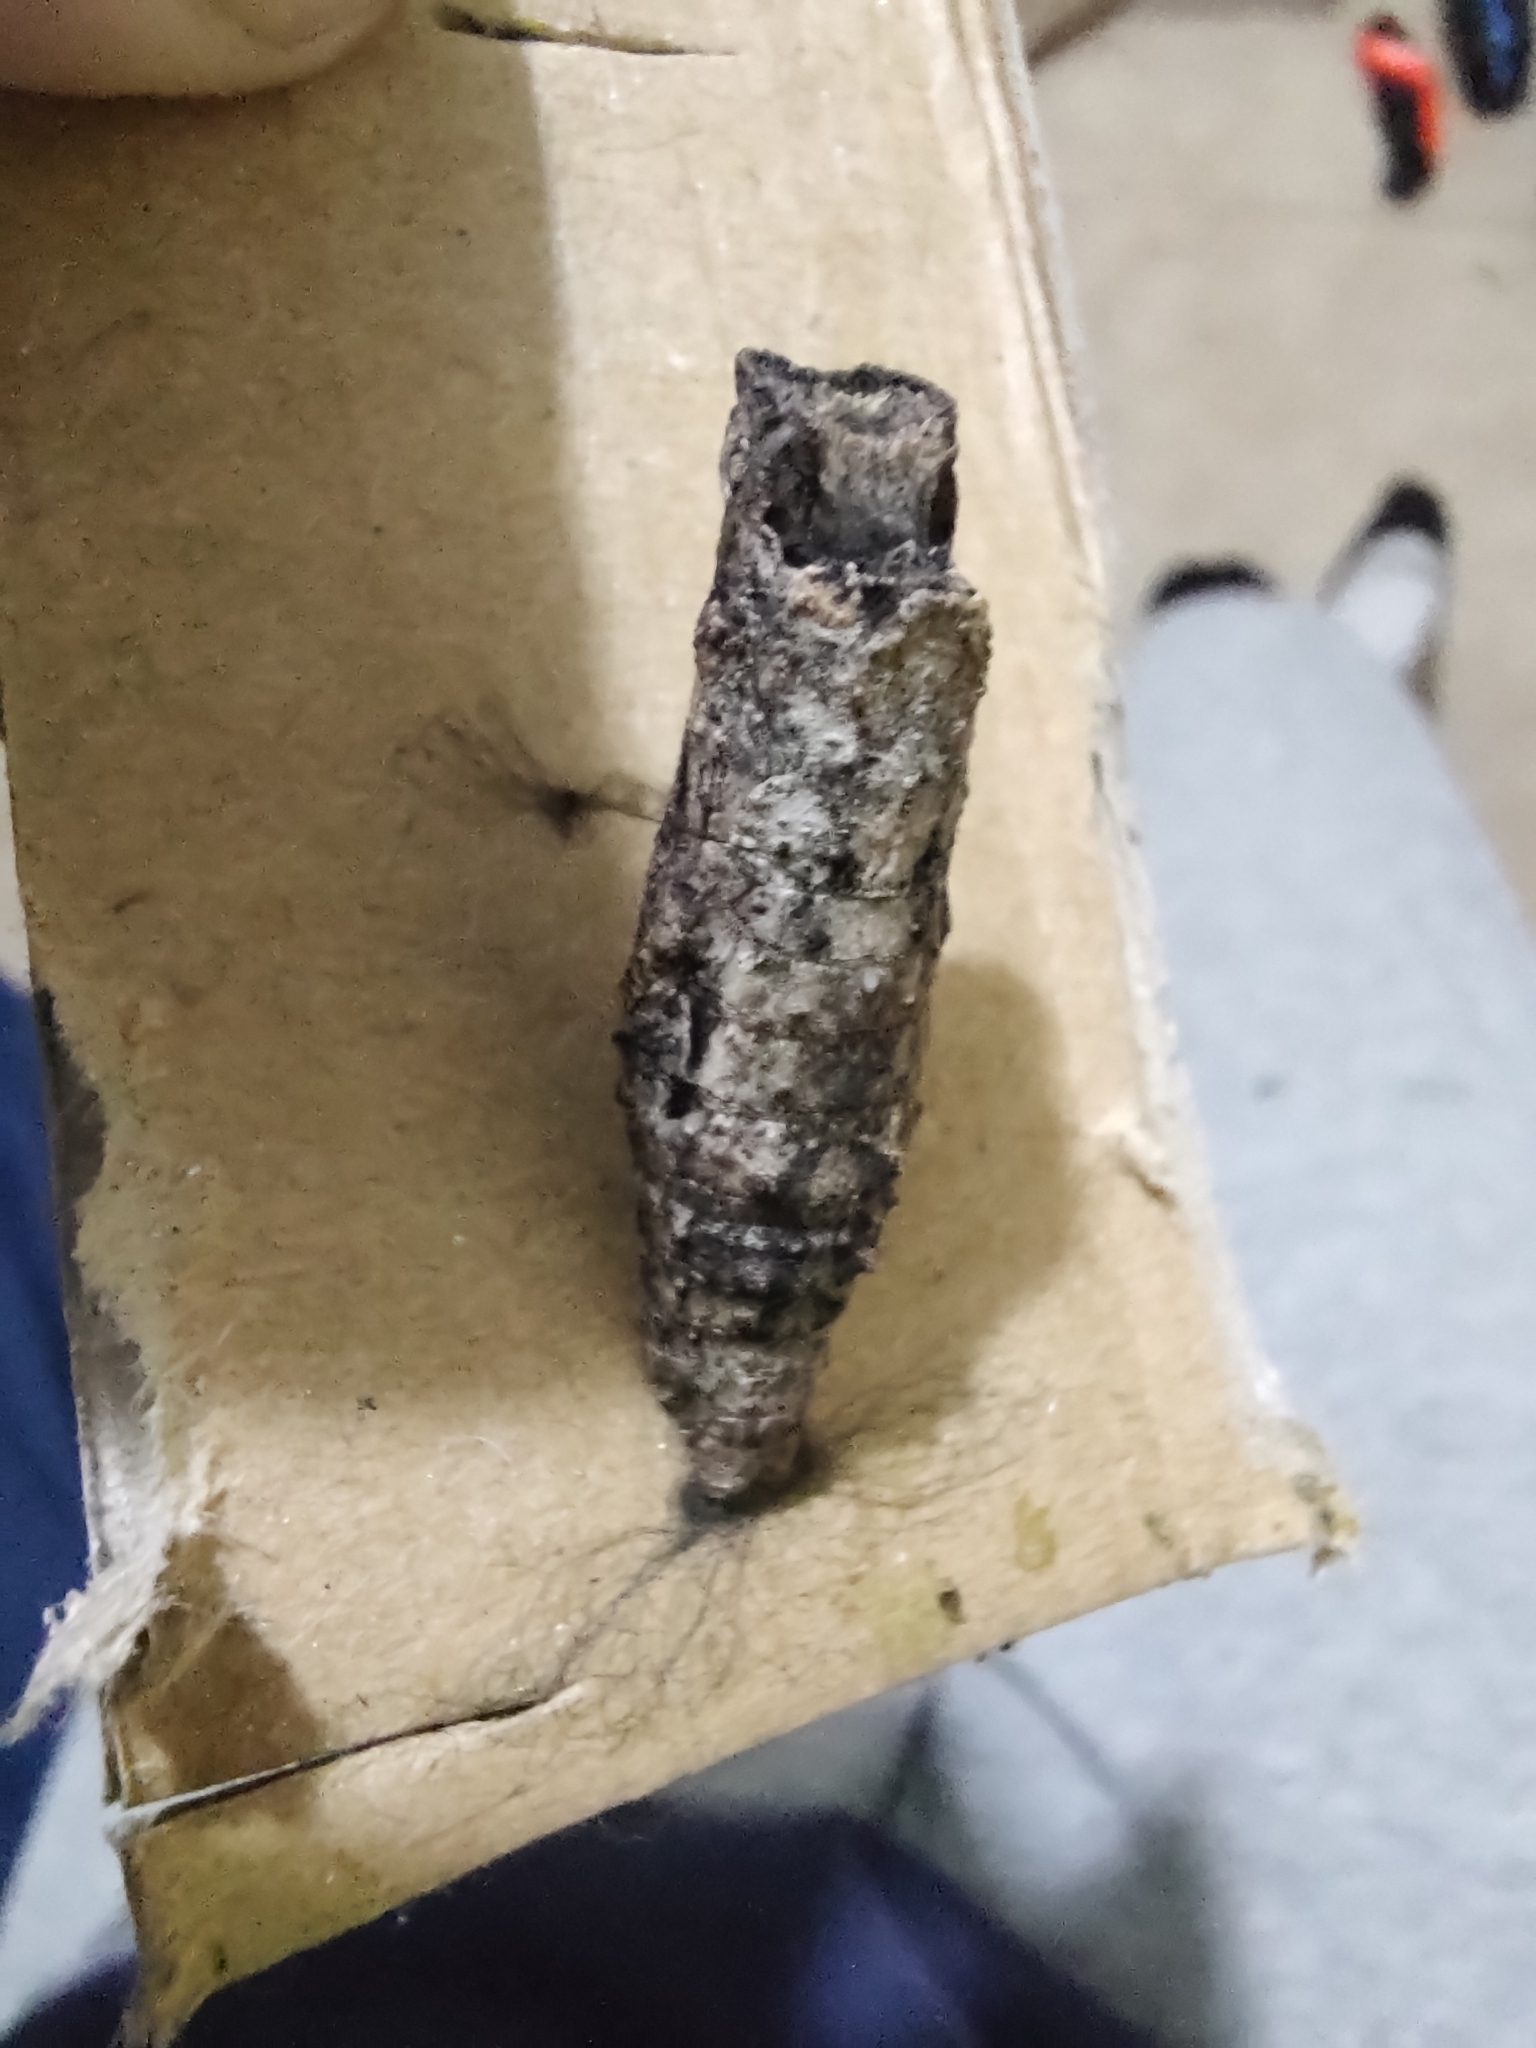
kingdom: Animalia
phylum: Arthropoda
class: Insecta
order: Lepidoptera
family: Papilionidae
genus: Papilio
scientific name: Papilio anchisiades
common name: Idaes swallowtail
